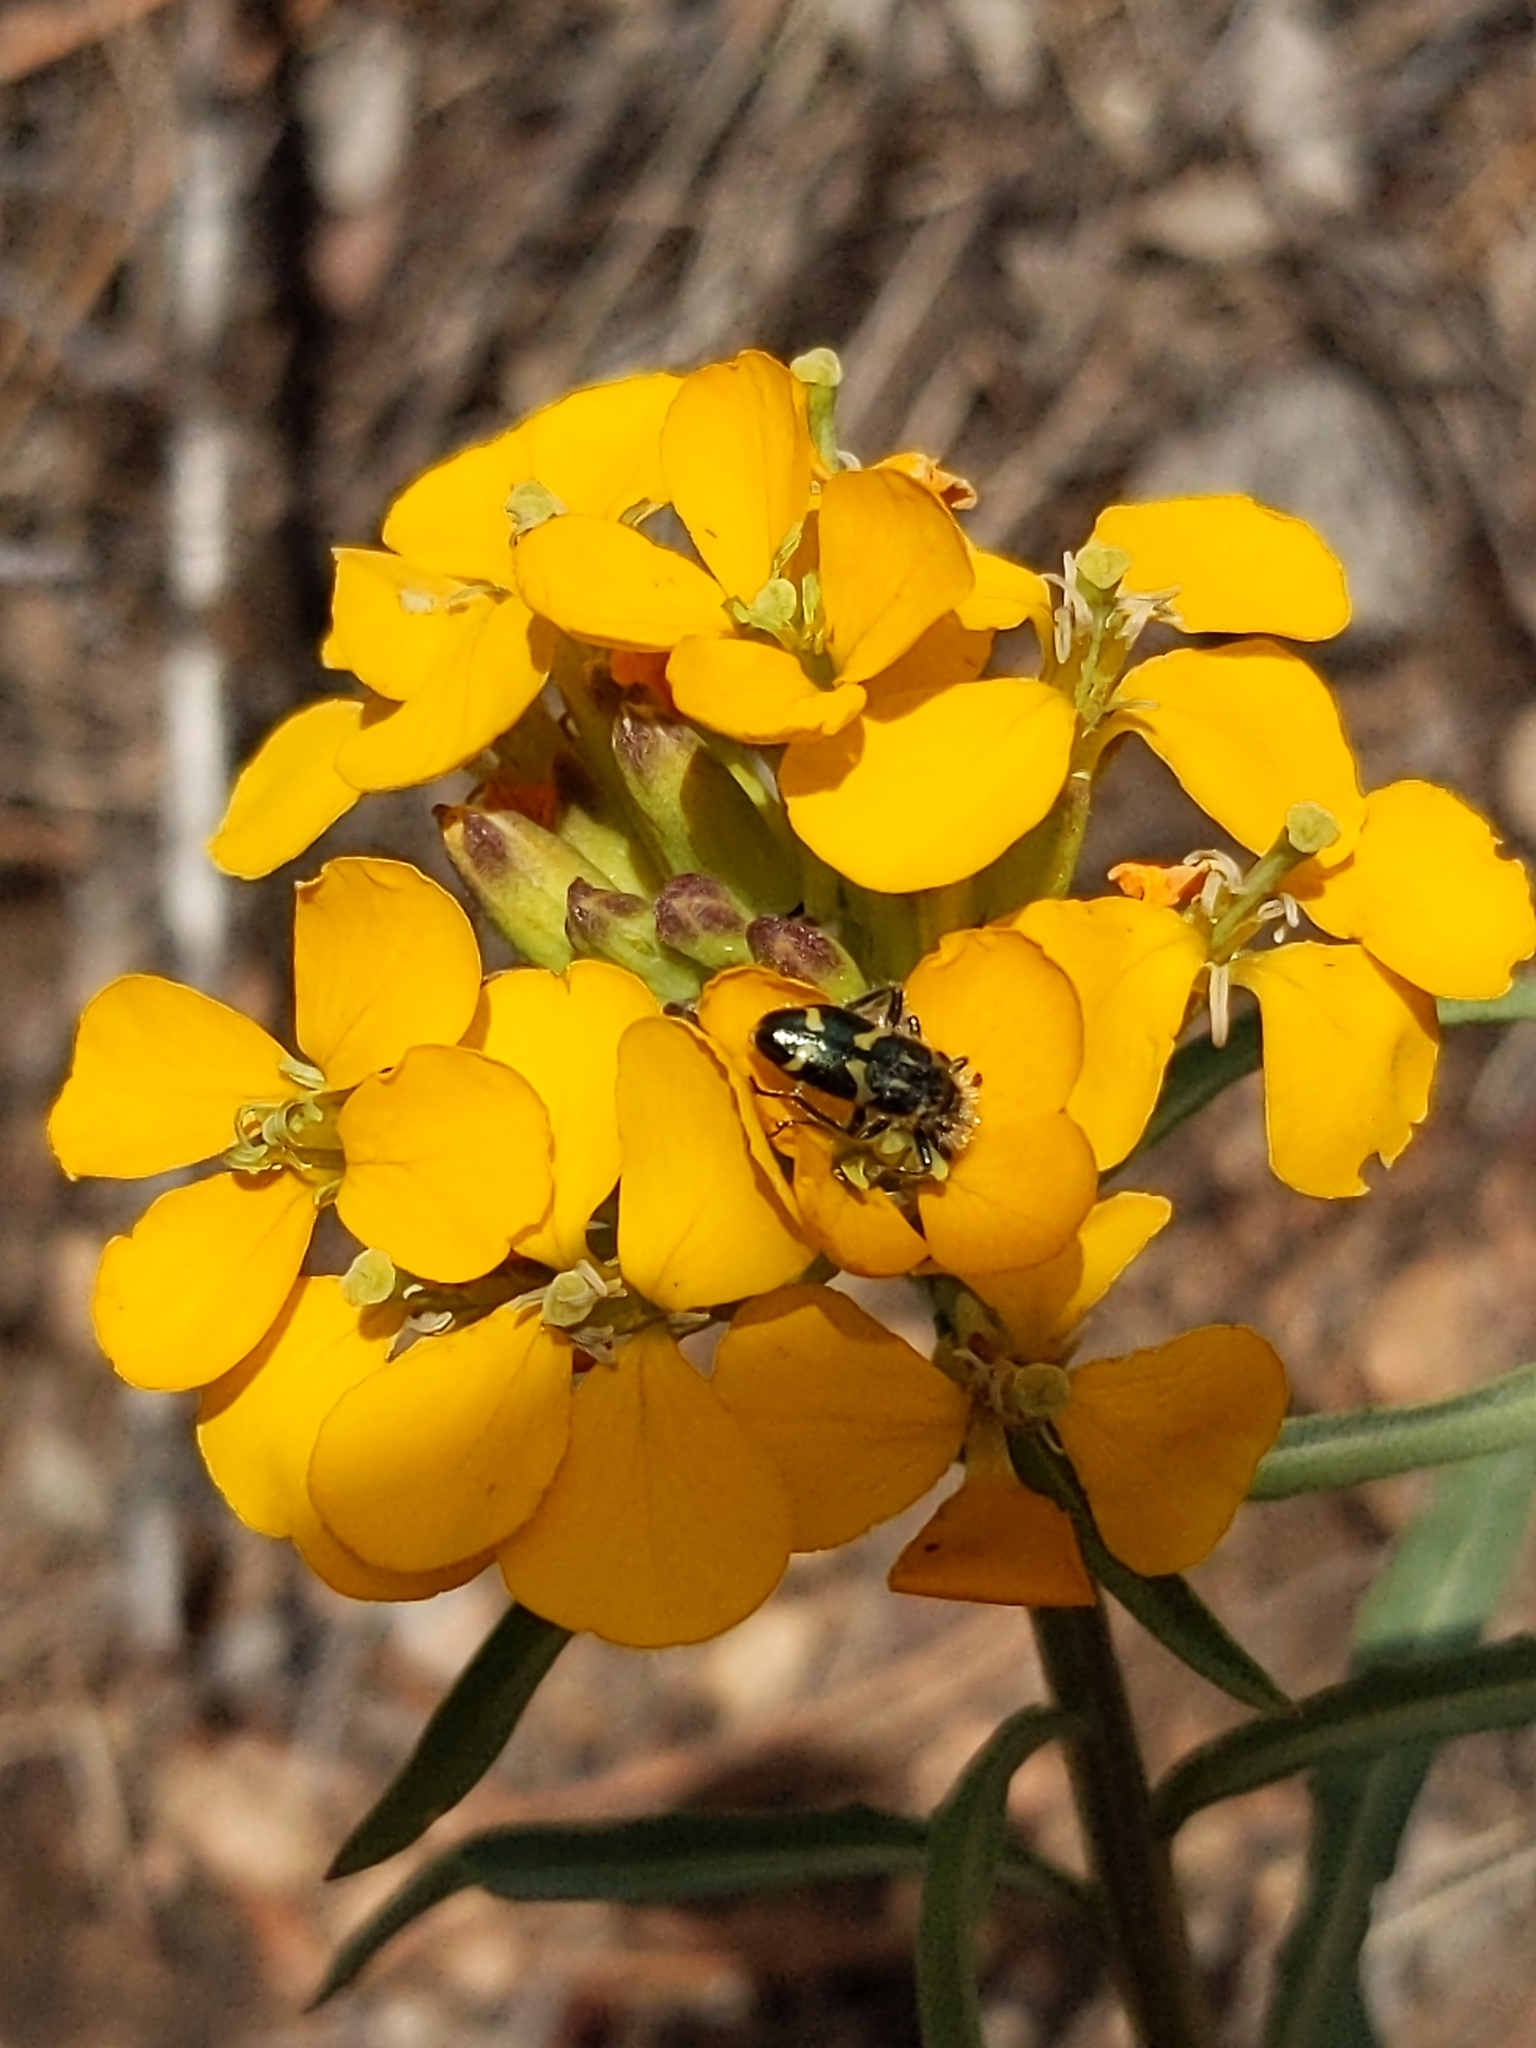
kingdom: Animalia
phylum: Arthropoda
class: Insecta
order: Coleoptera
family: Cleridae
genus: Trichodes
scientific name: Trichodes ornatus
